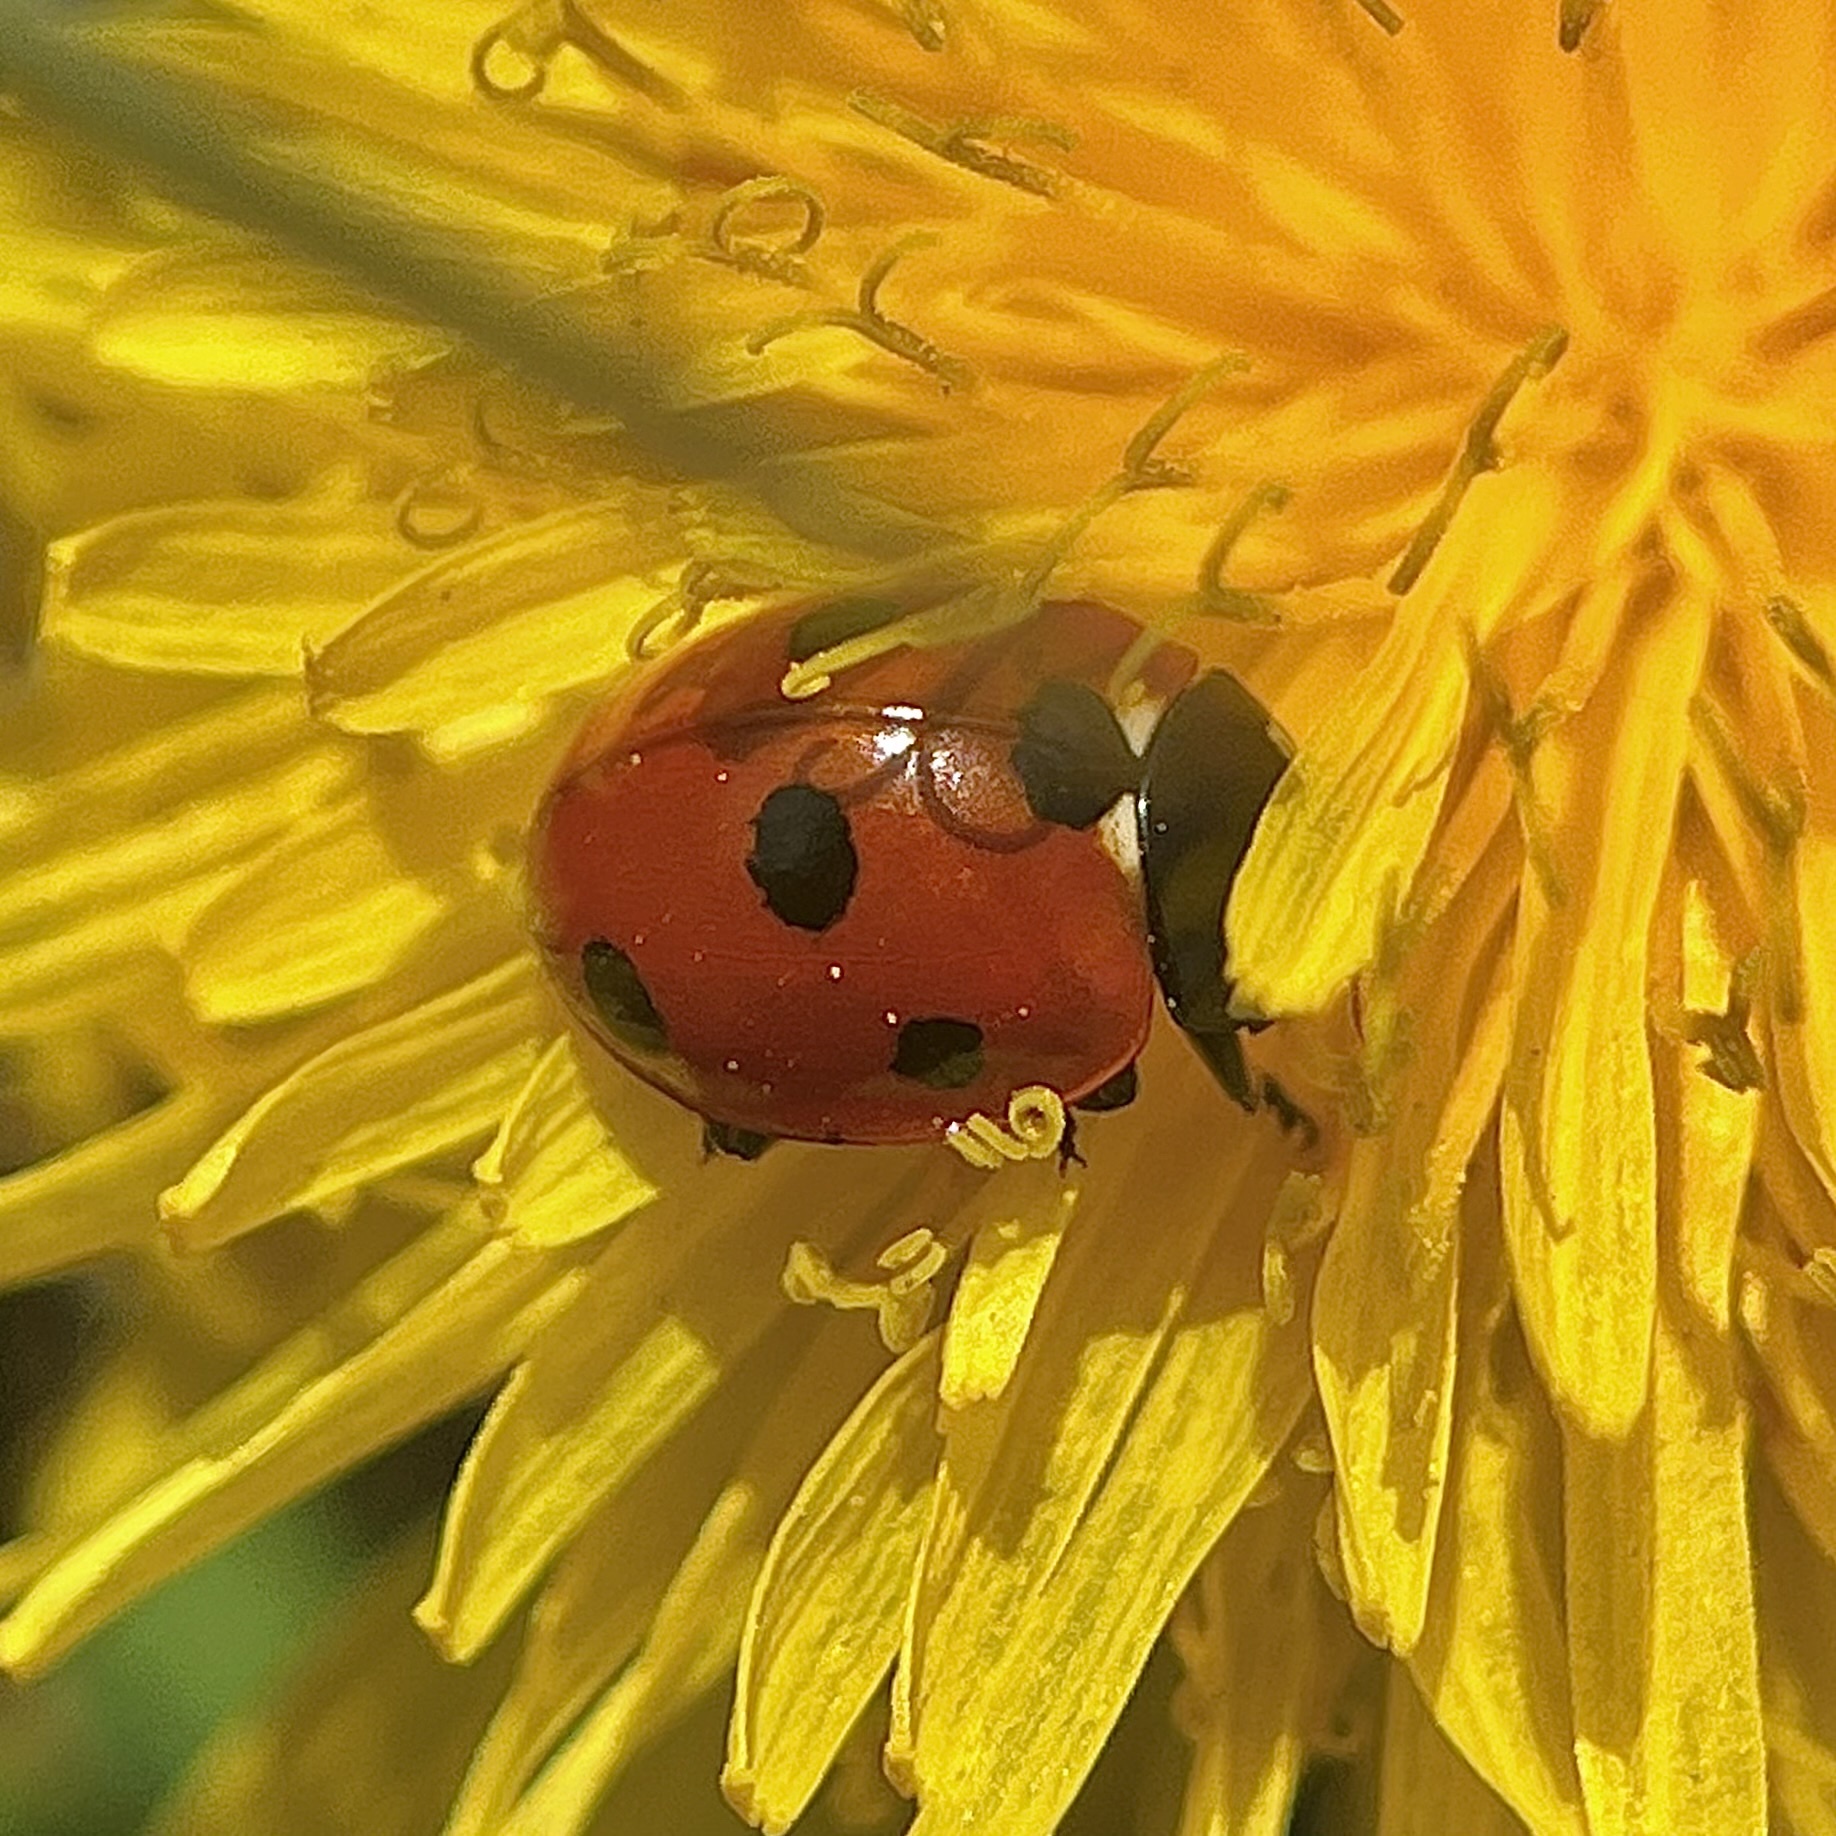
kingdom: Animalia
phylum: Arthropoda
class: Insecta
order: Coleoptera
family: Coccinellidae
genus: Coccinella
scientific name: Coccinella septempunctata
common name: Sevenspotted lady beetle
